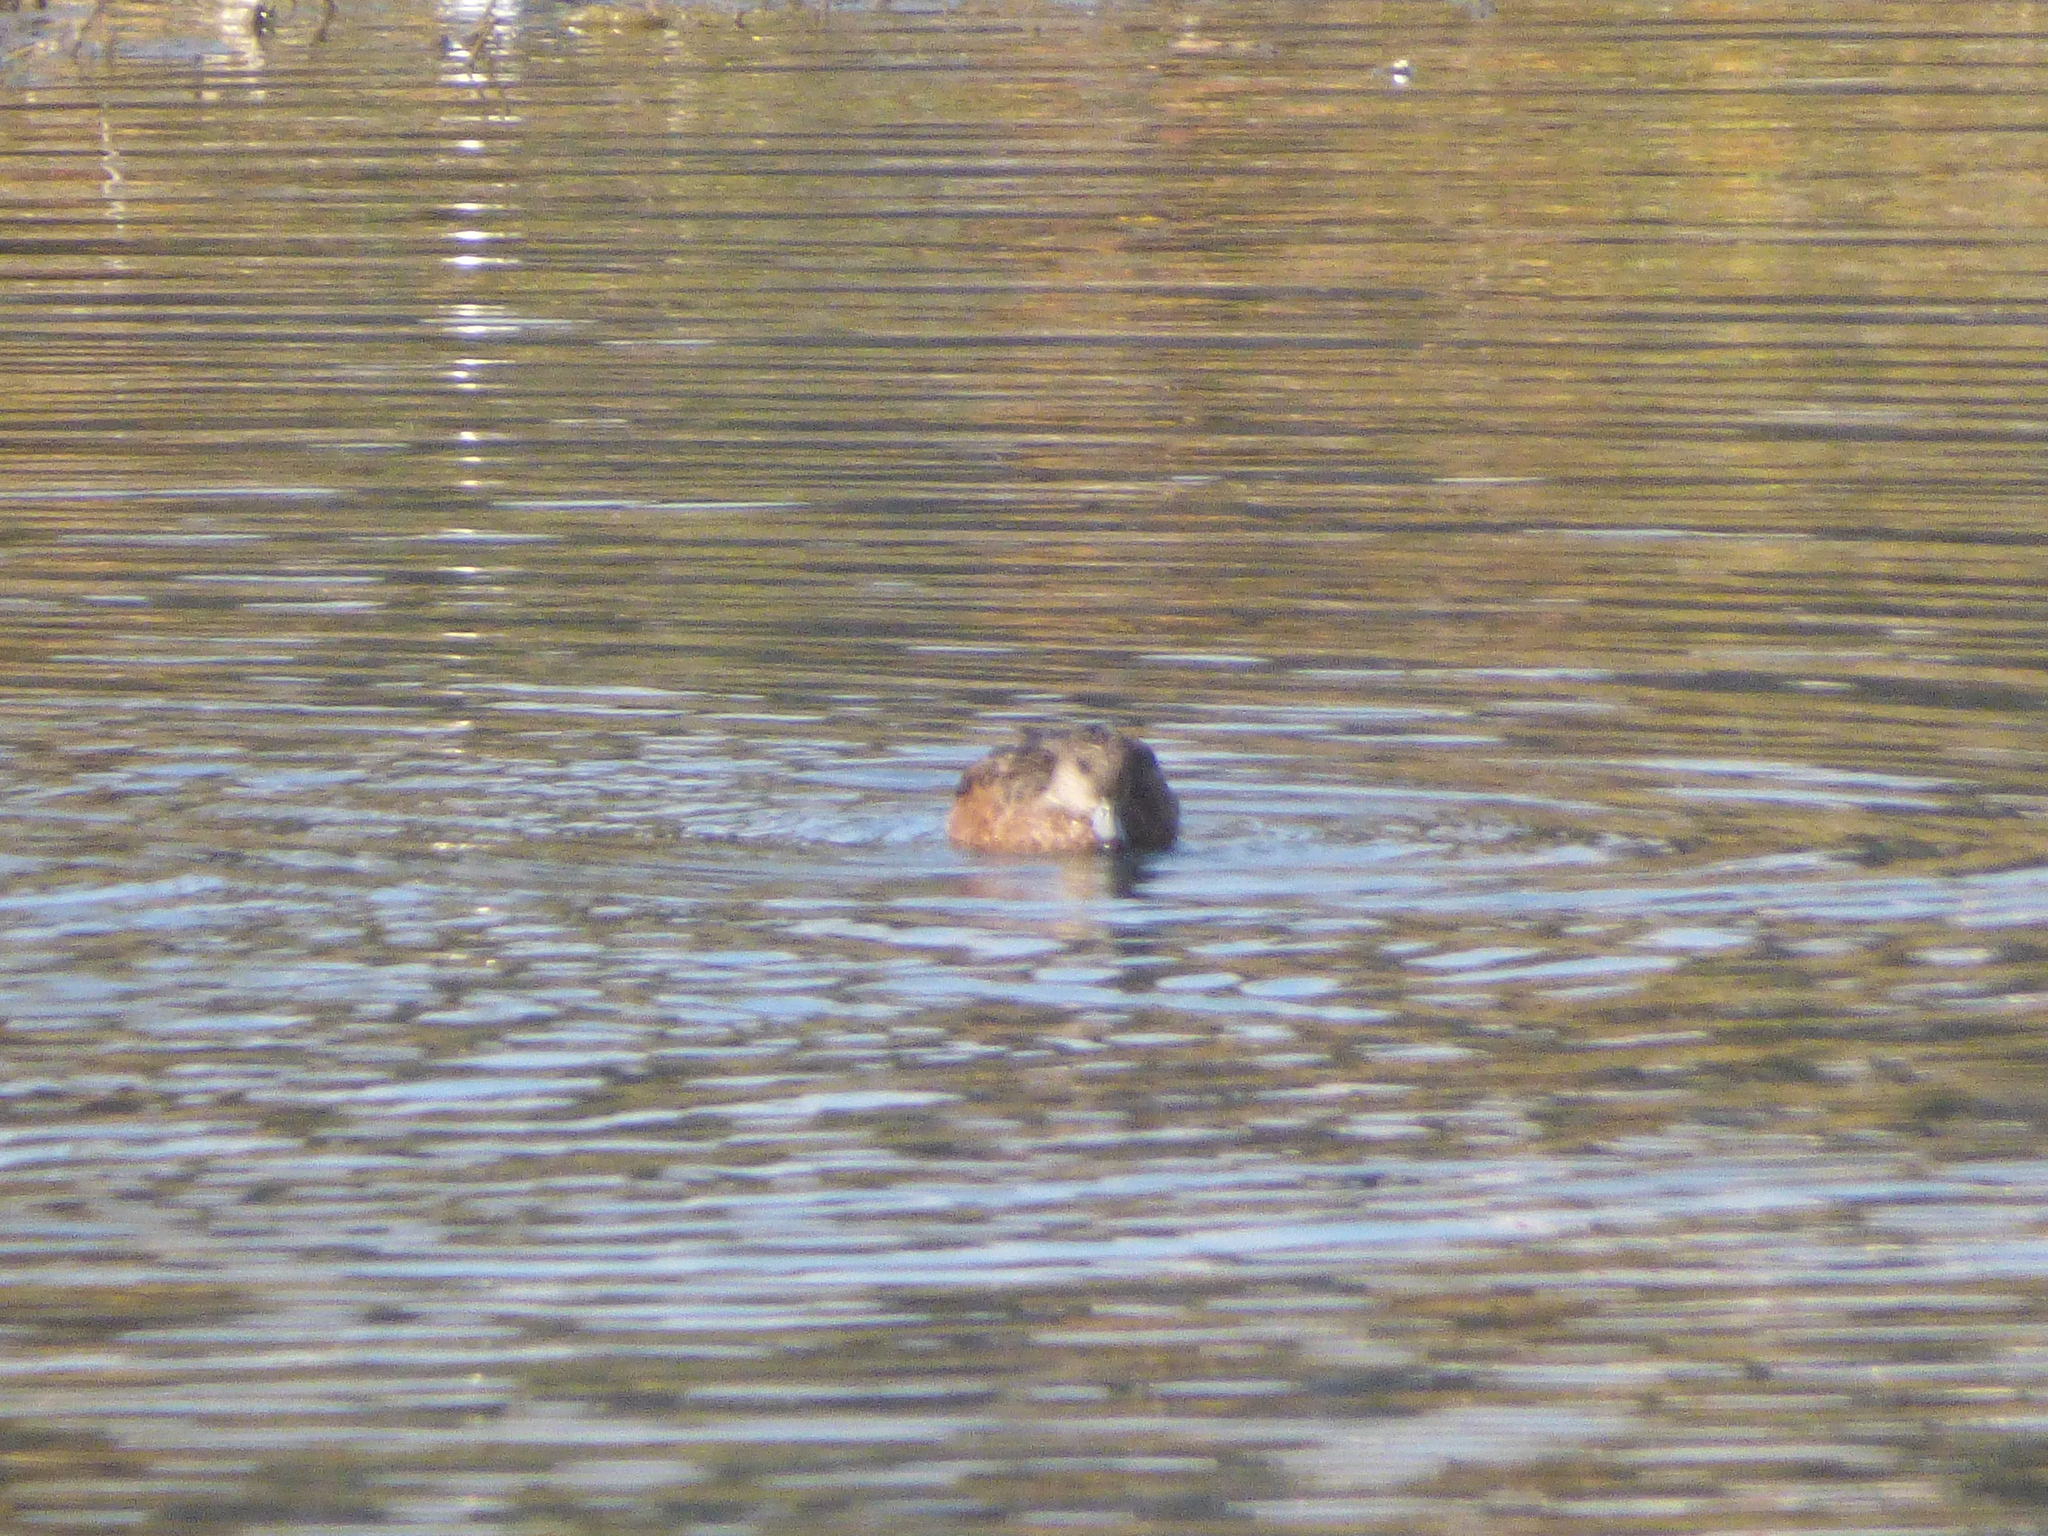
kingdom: Animalia
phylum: Chordata
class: Aves
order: Anseriformes
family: Anatidae
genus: Mareca
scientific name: Mareca americana
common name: American wigeon
